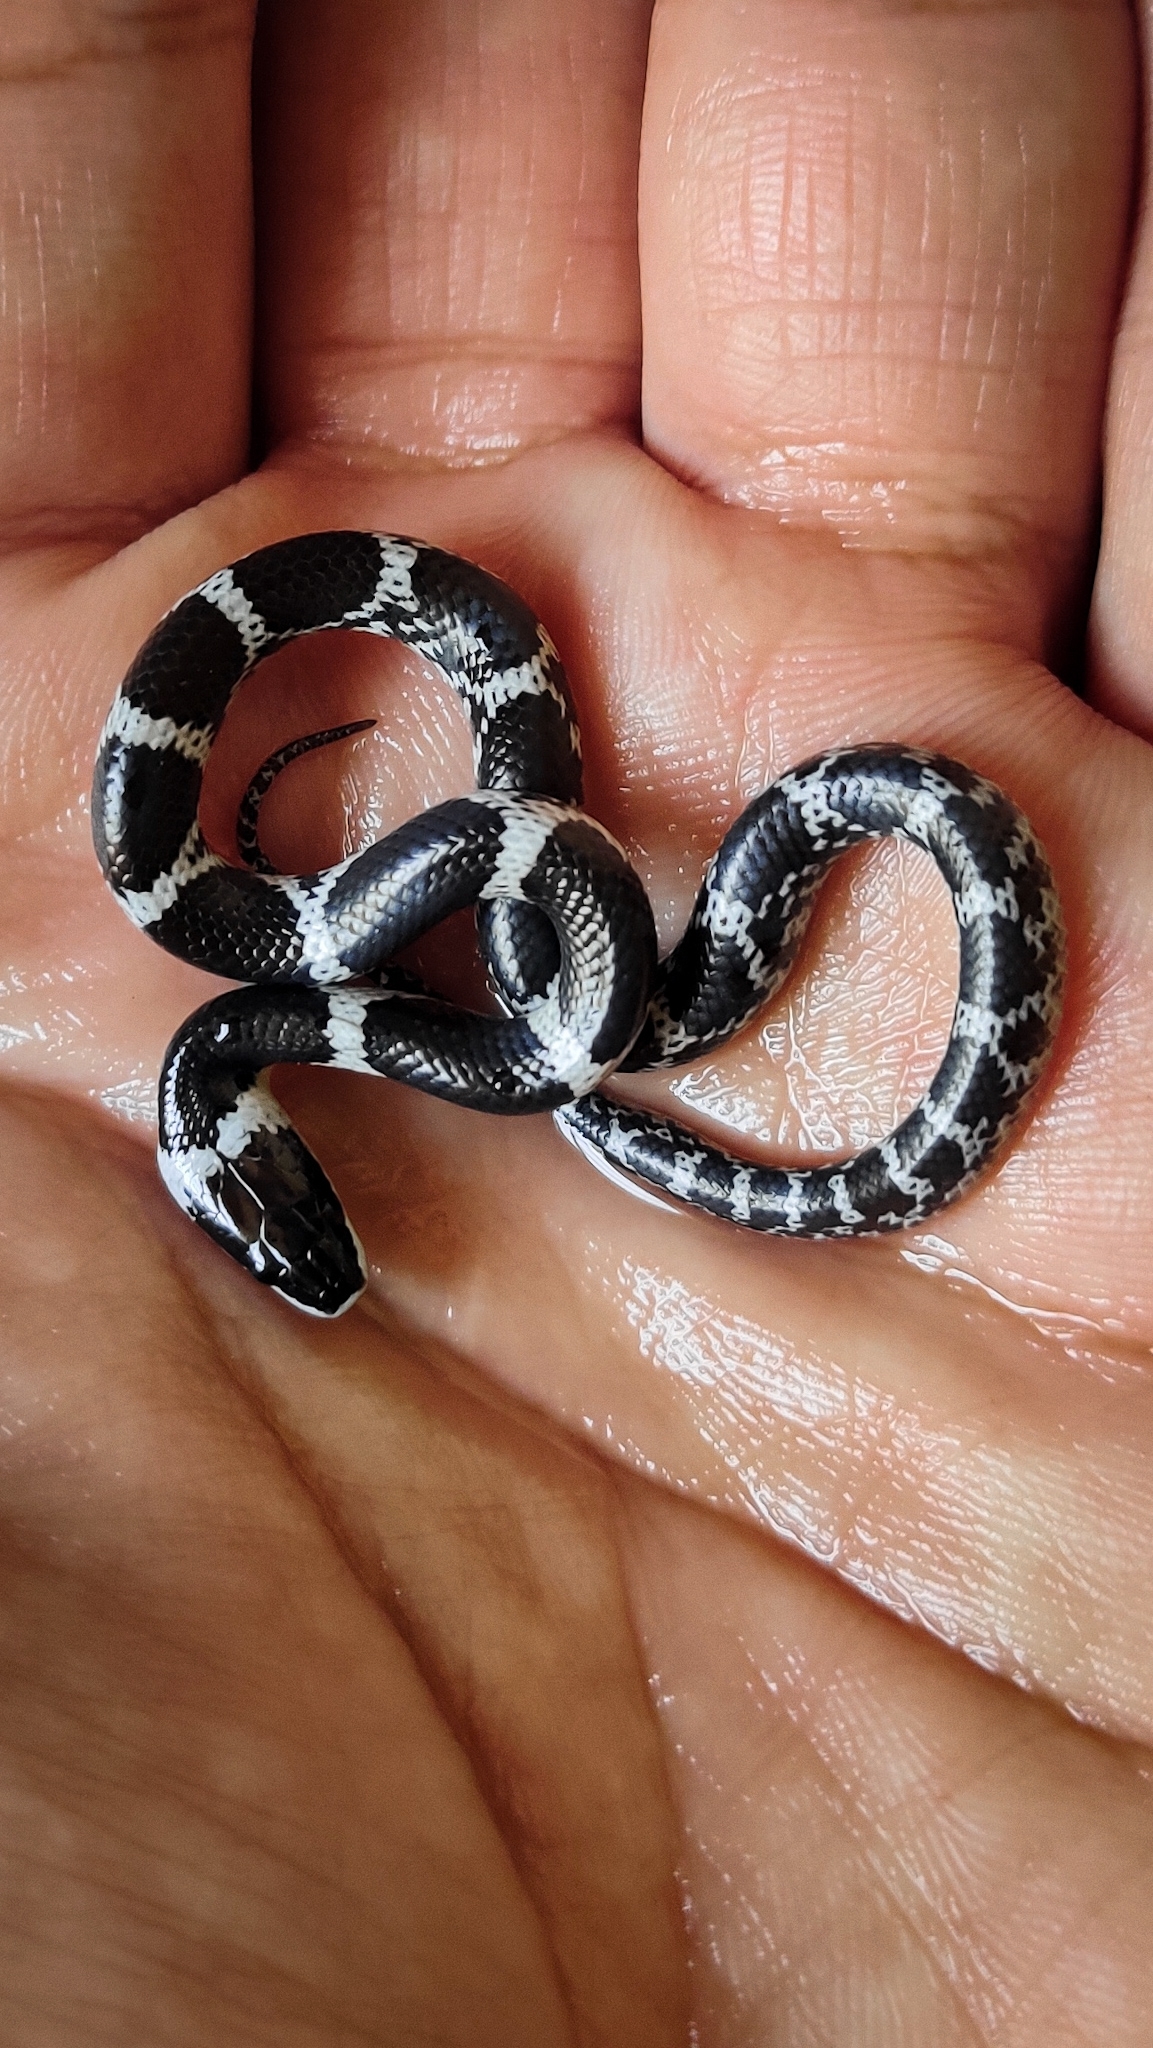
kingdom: Animalia
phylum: Chordata
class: Squamata
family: Colubridae
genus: Lycodon
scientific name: Lycodon aulicus
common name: Common wolf snake
